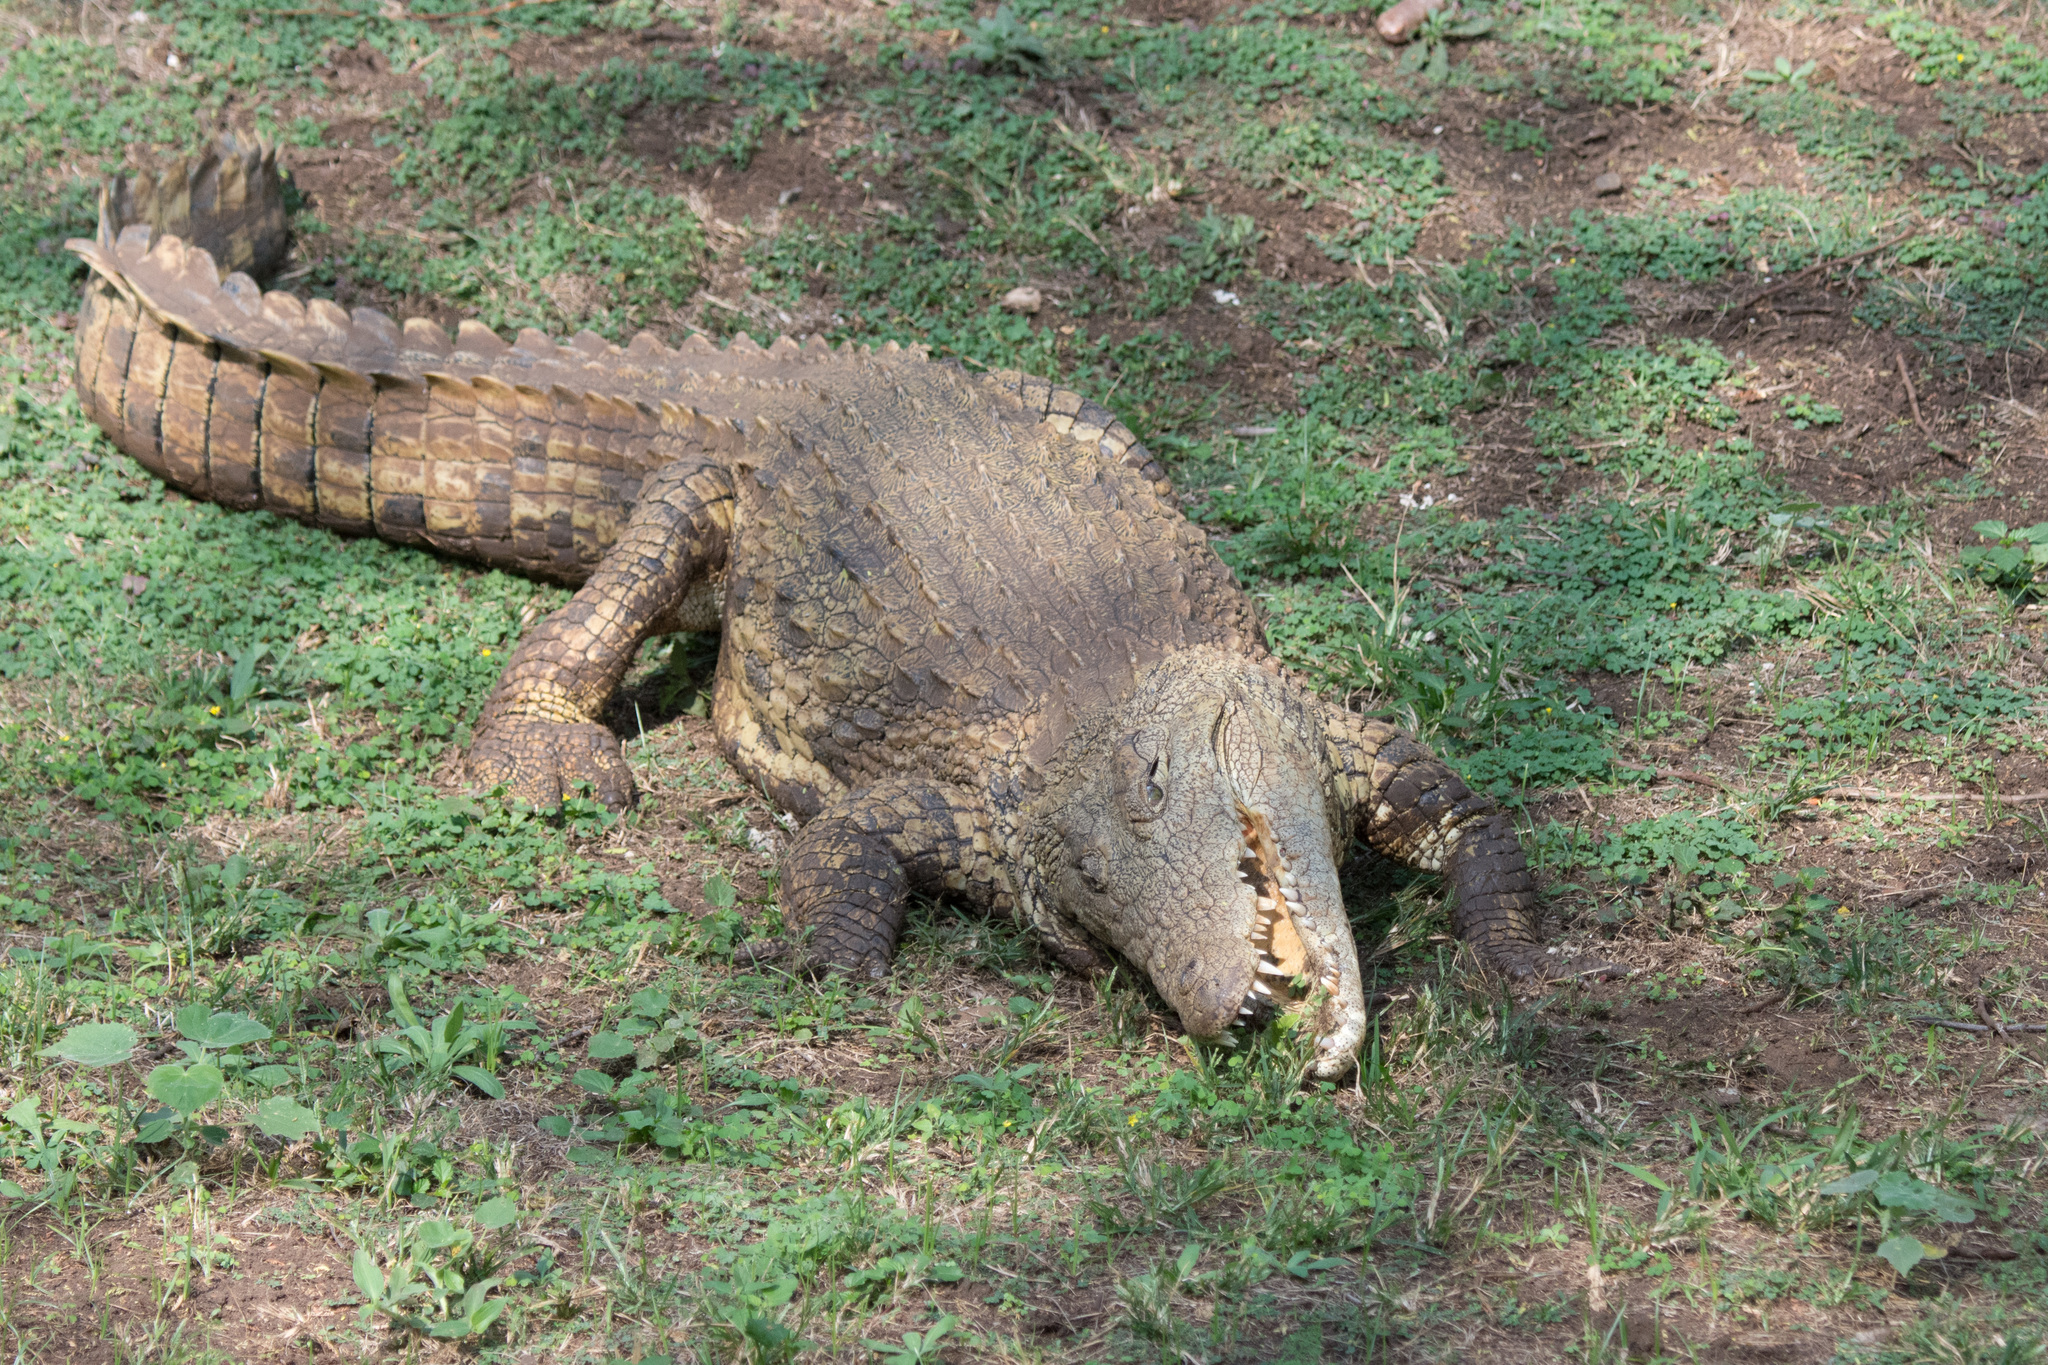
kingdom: Animalia
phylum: Chordata
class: Crocodylia
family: Crocodylidae
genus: Crocodylus
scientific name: Crocodylus niloticus
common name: Nile crocodile
